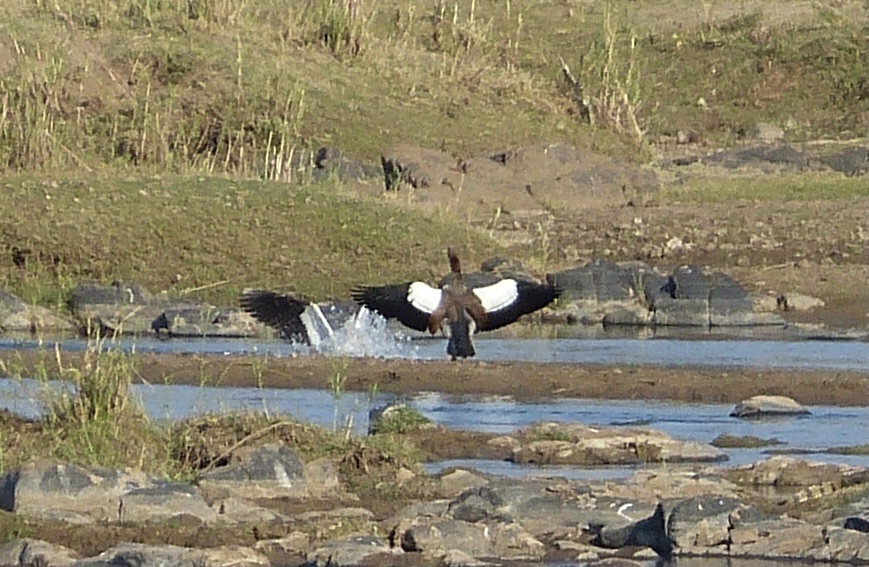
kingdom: Animalia
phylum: Chordata
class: Aves
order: Anseriformes
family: Anatidae
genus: Alopochen
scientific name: Alopochen aegyptiaca
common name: Egyptian goose
